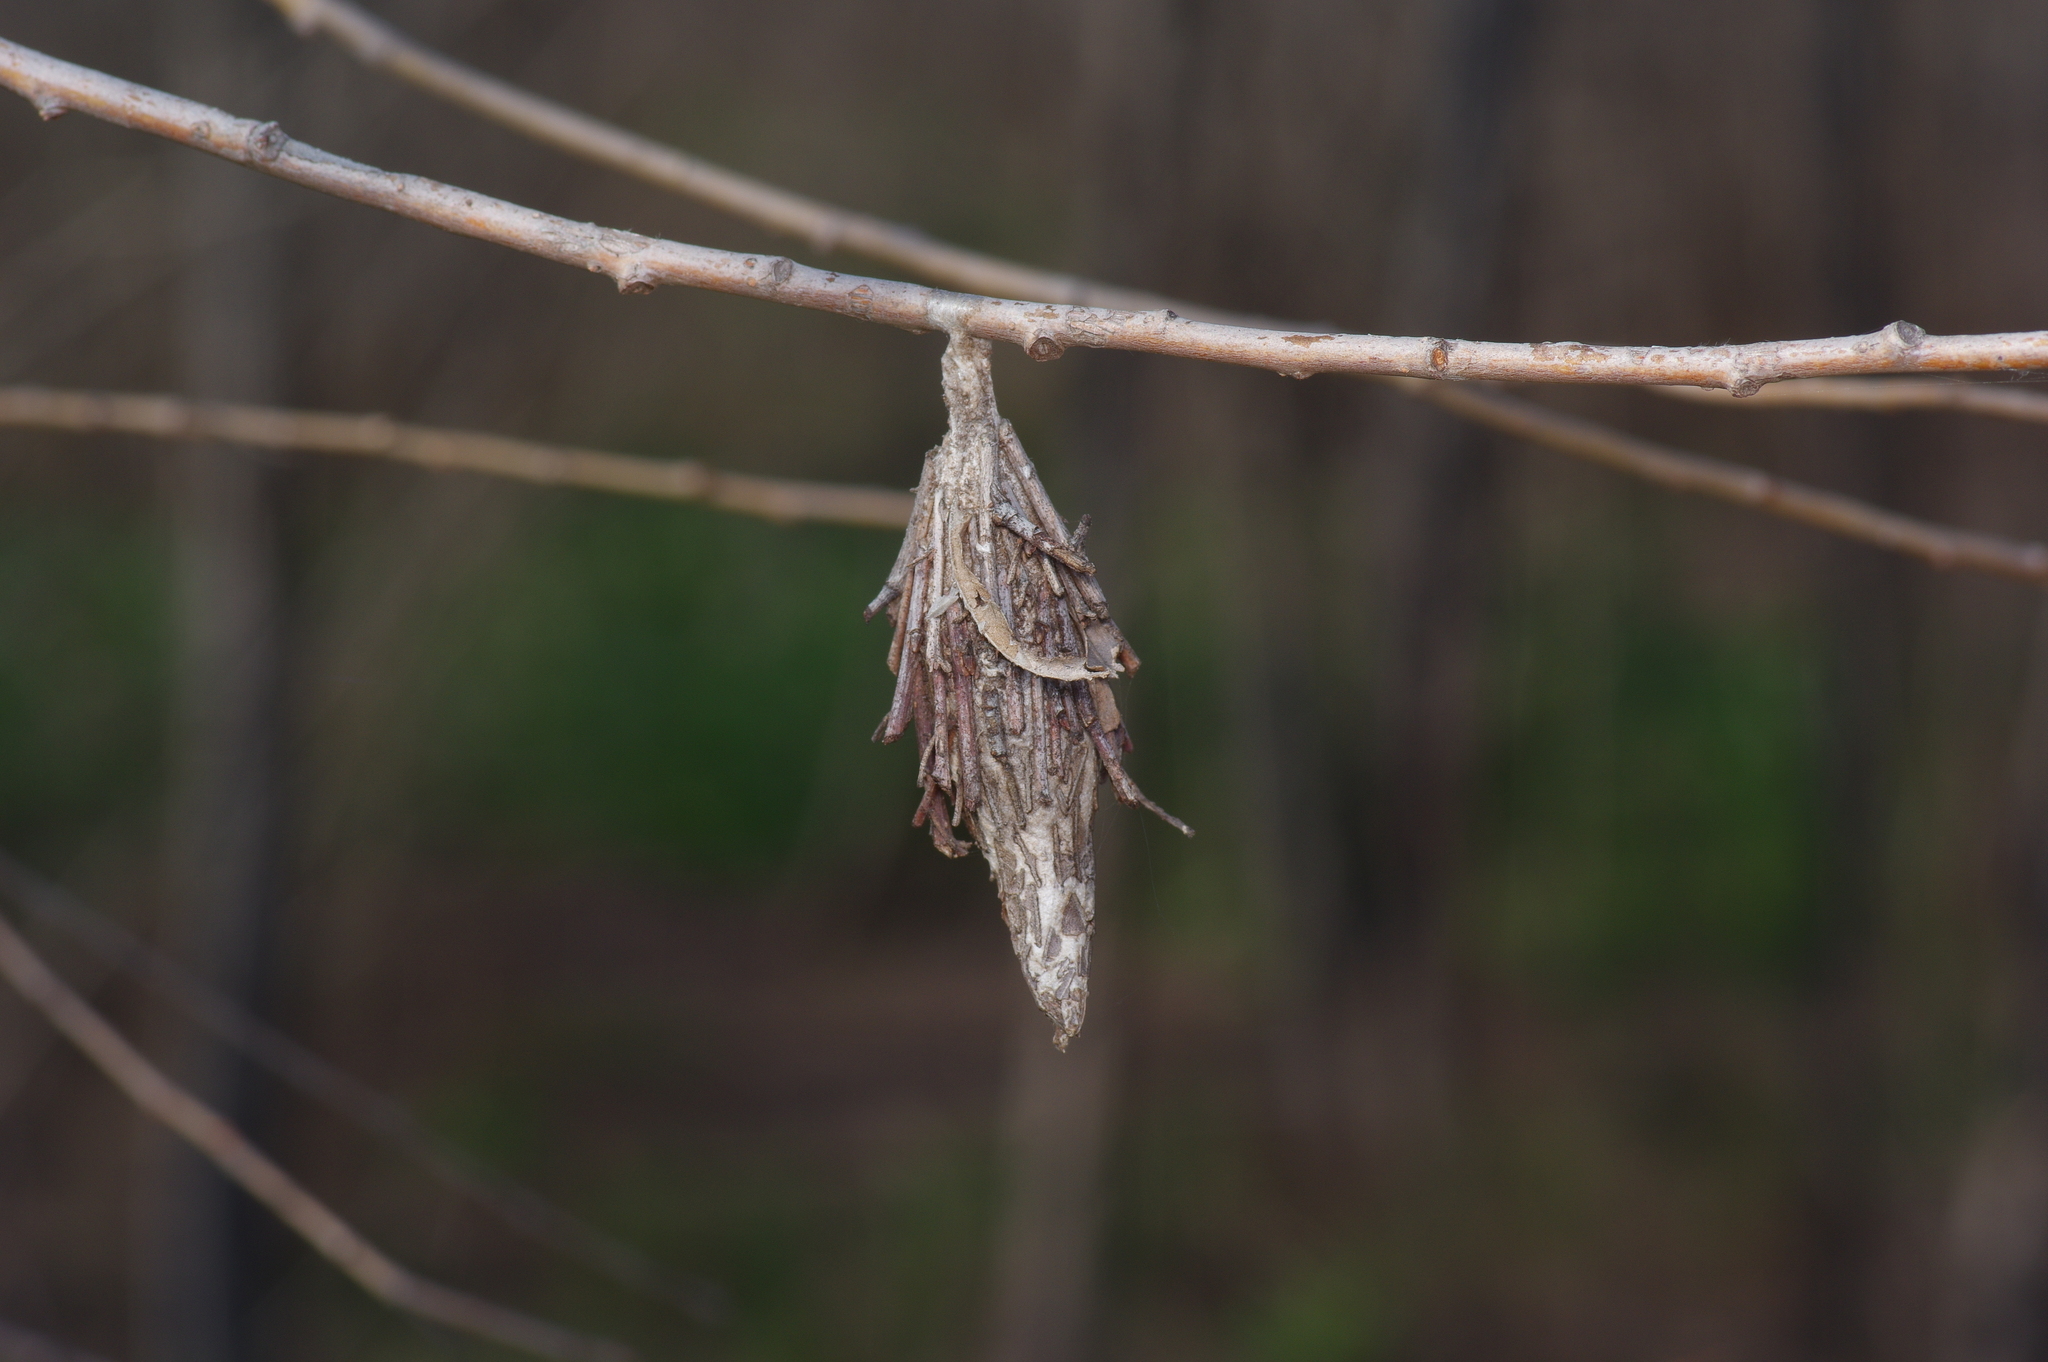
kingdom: Animalia
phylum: Arthropoda
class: Insecta
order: Lepidoptera
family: Psychidae
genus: Thyridopteryx
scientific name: Thyridopteryx ephemeraeformis
